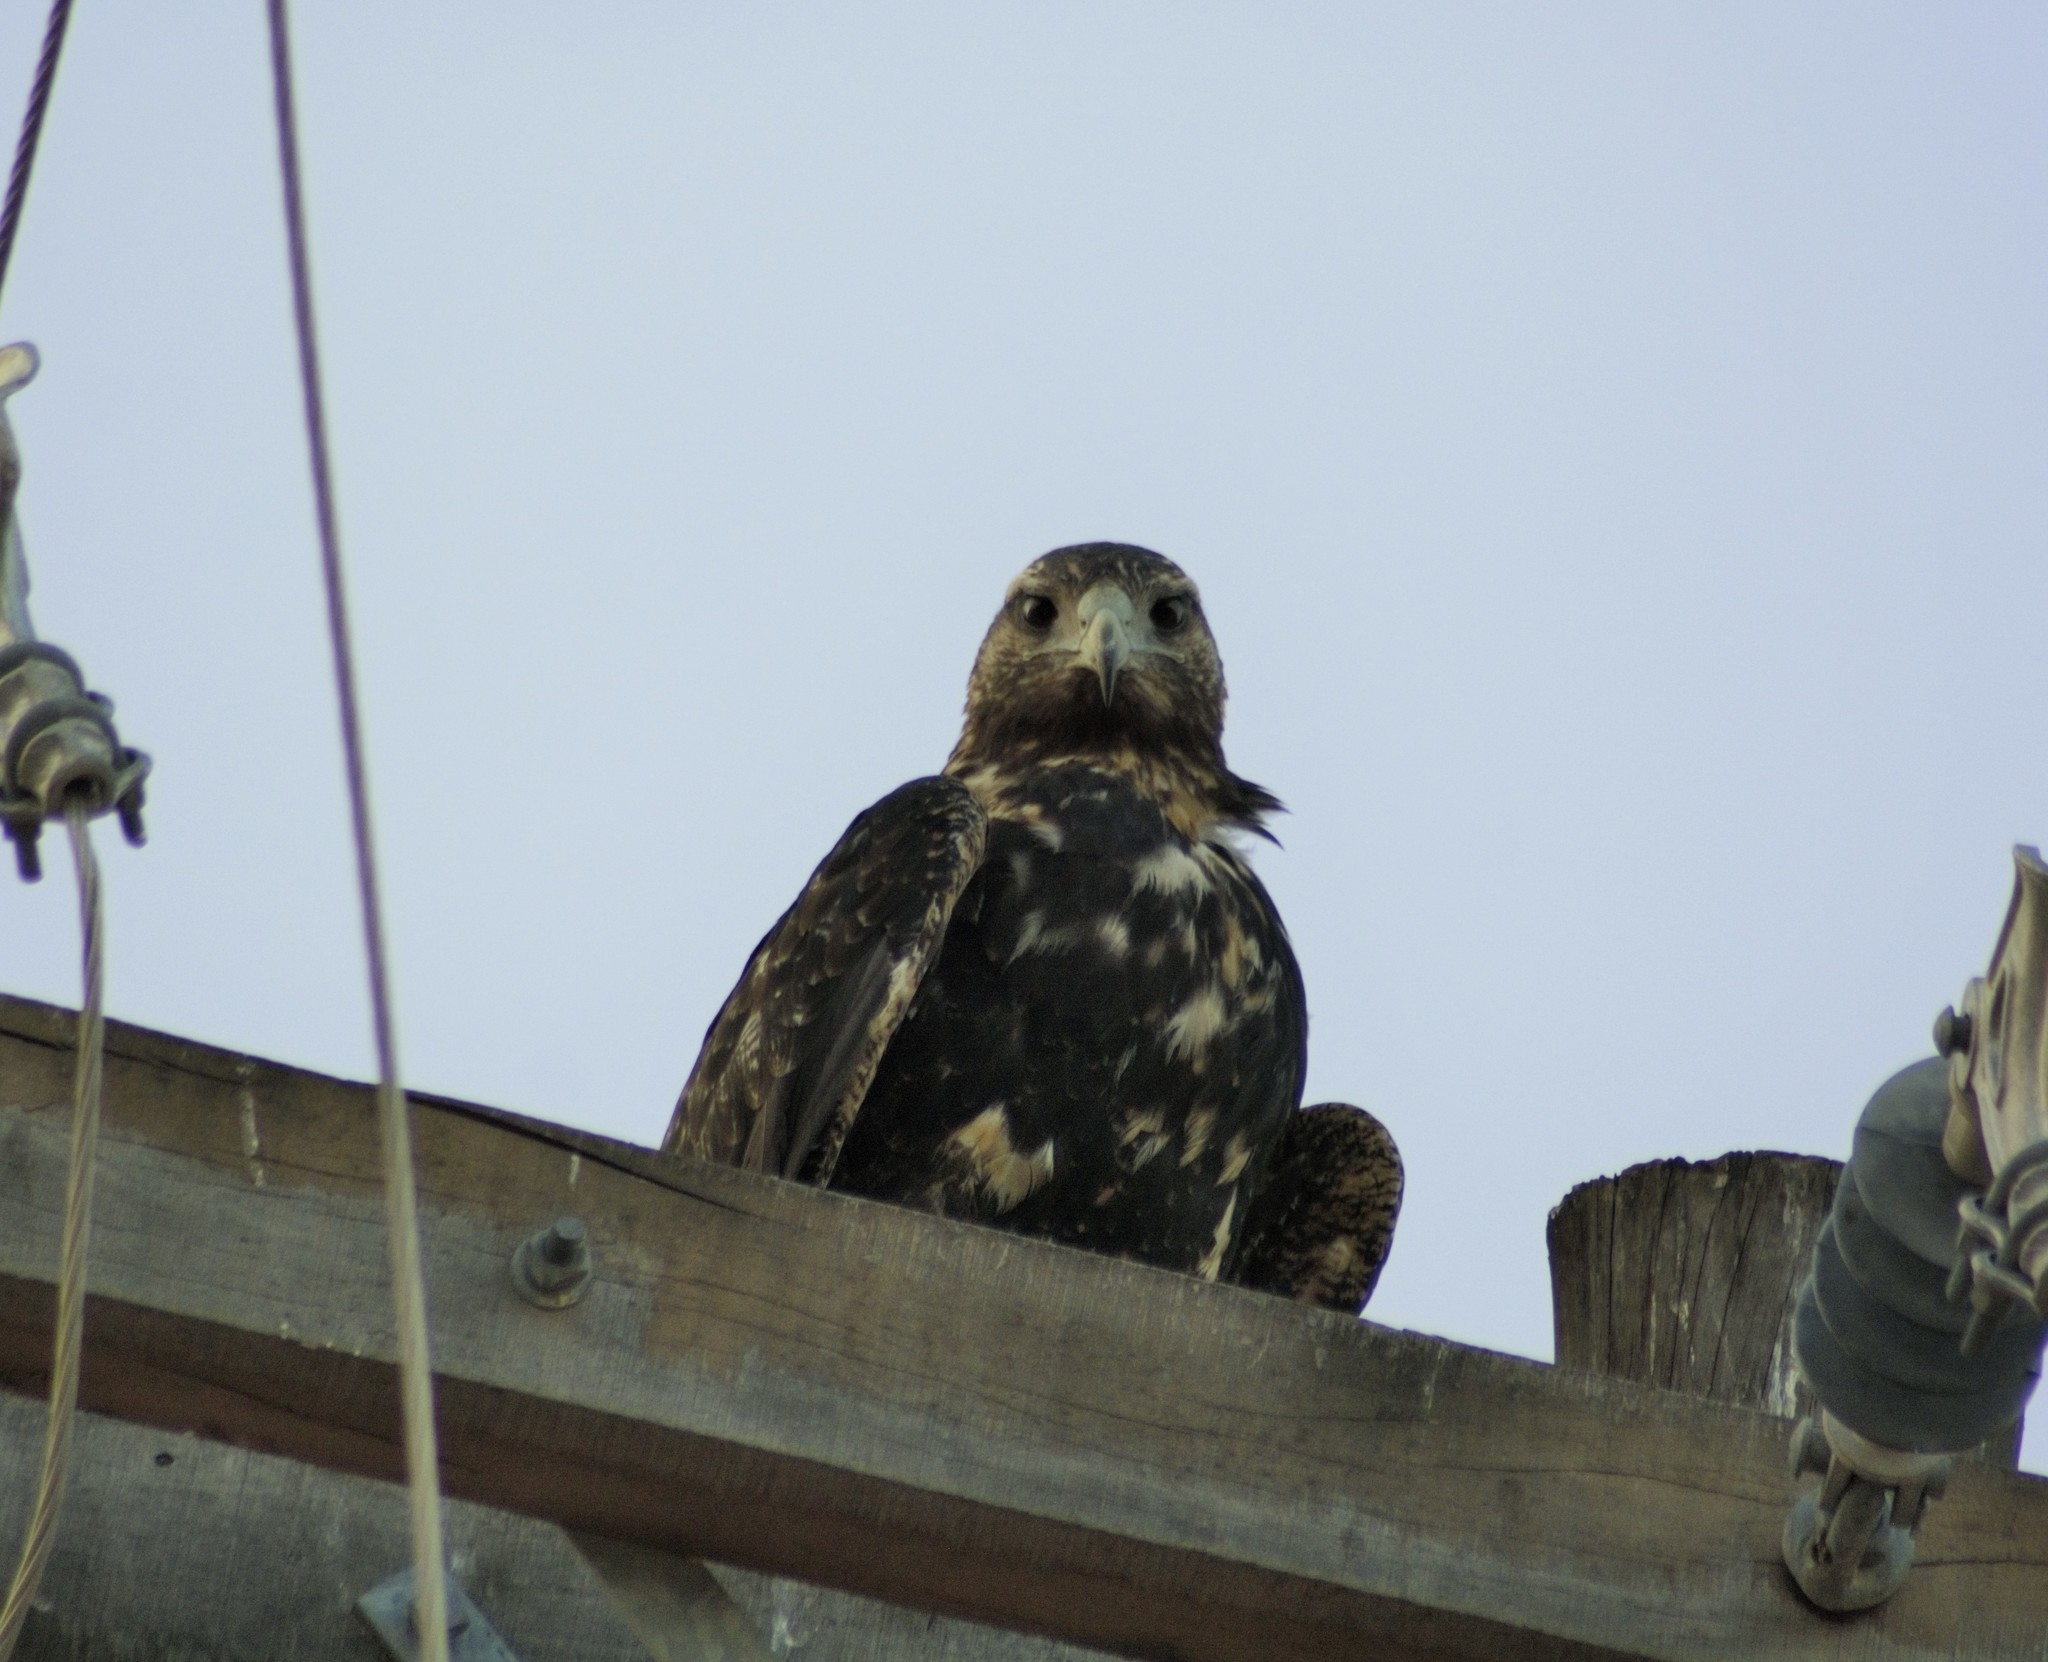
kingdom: Animalia
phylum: Chordata
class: Aves
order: Accipitriformes
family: Accipitridae
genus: Geranoaetus
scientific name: Geranoaetus melanoleucus
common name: Black-chested buzzard-eagle
